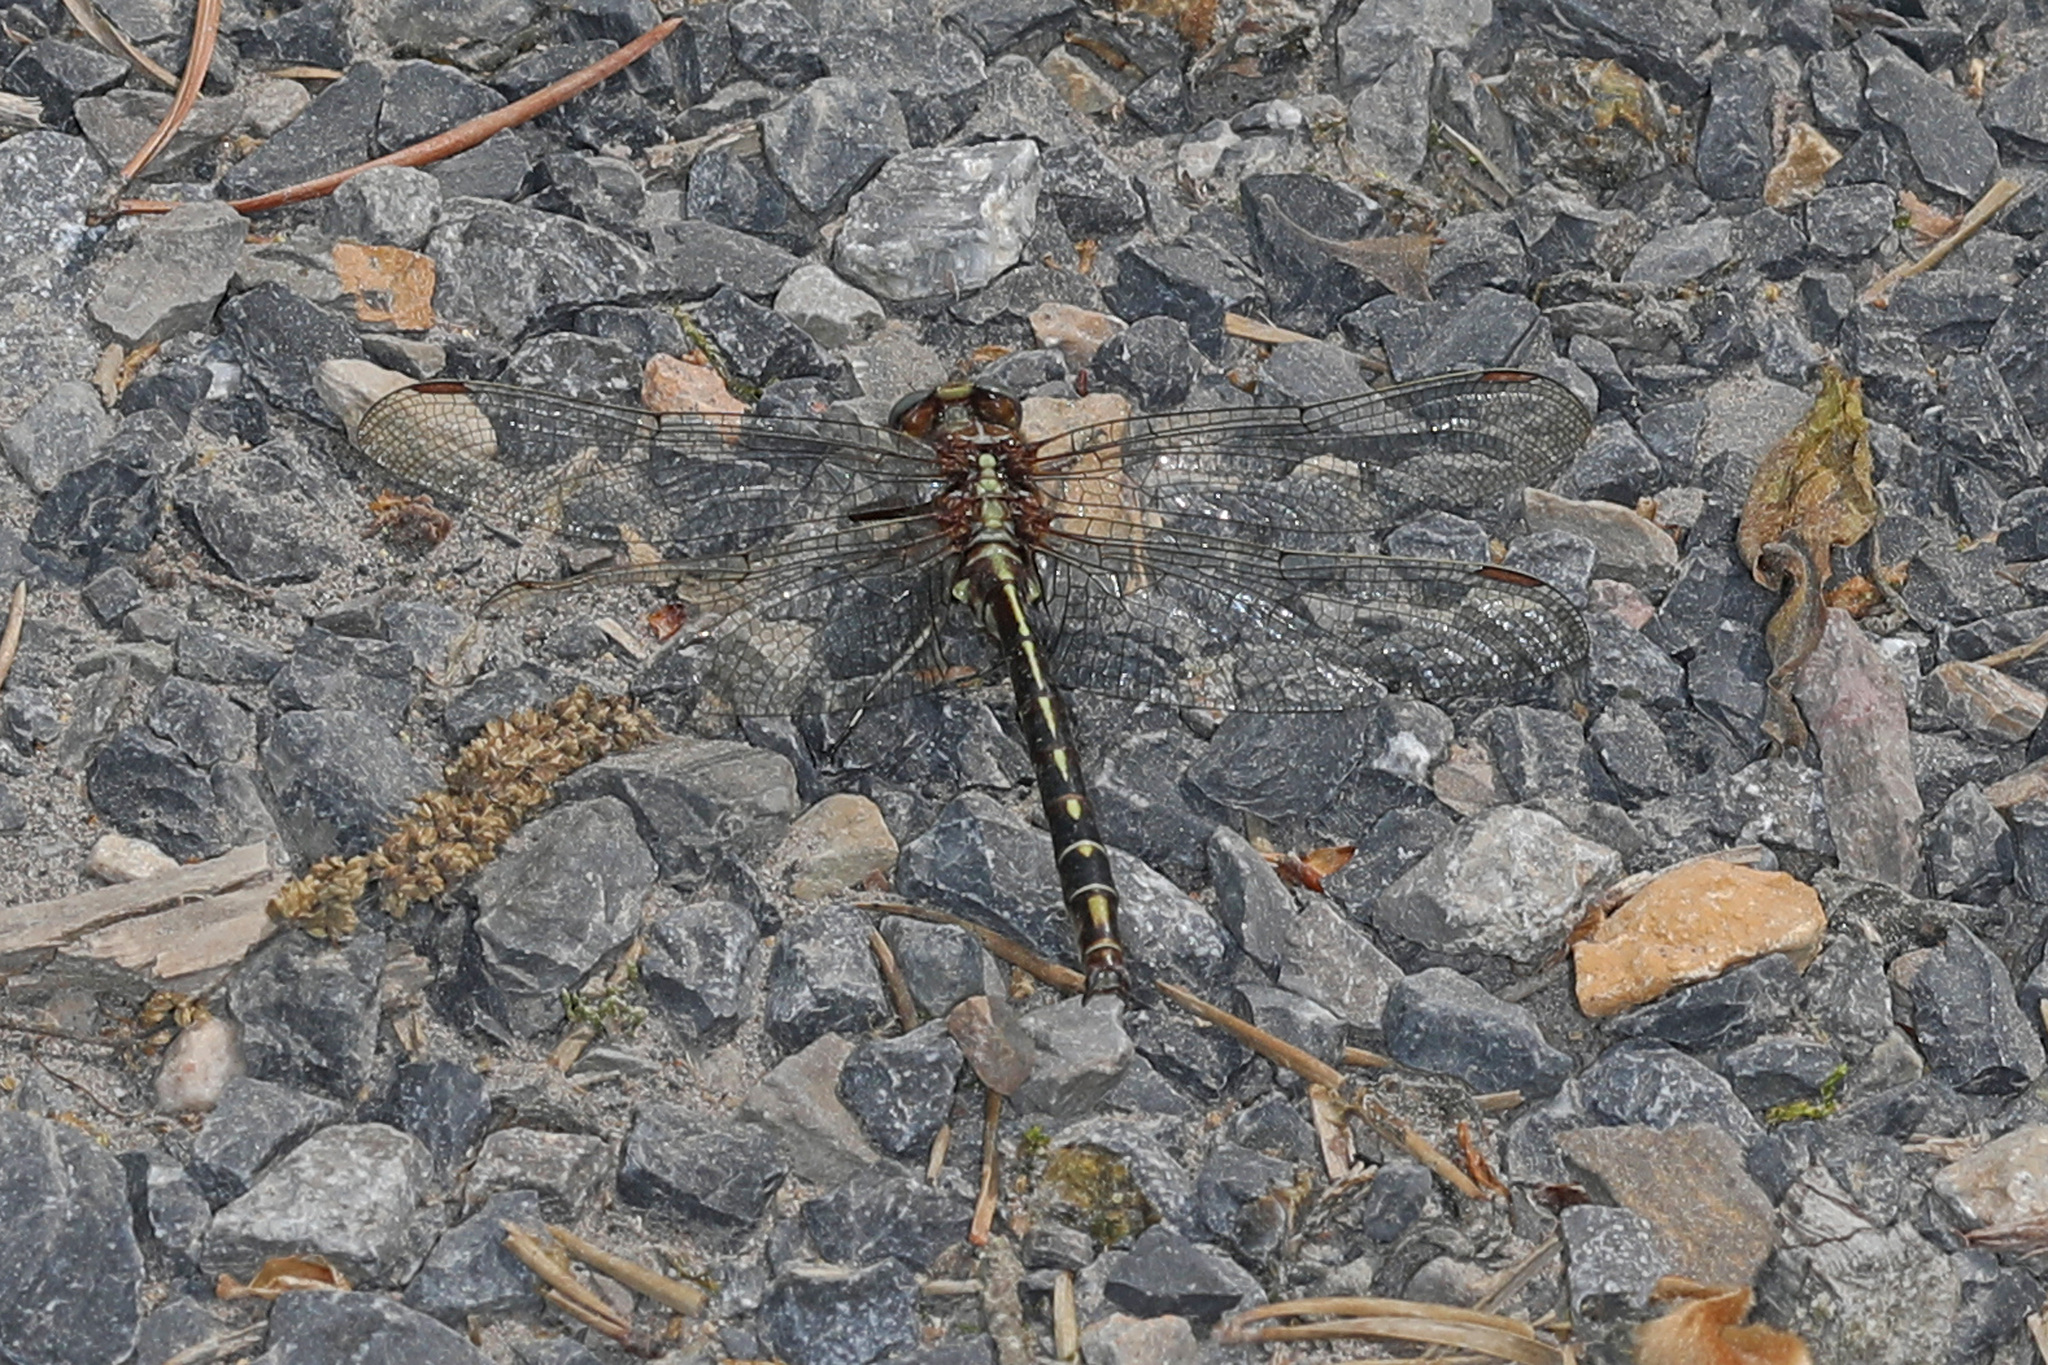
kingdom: Animalia
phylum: Arthropoda
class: Insecta
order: Odonata
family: Gomphidae
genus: Phanogomphus
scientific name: Phanogomphus lividus
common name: Ashy clubtail
